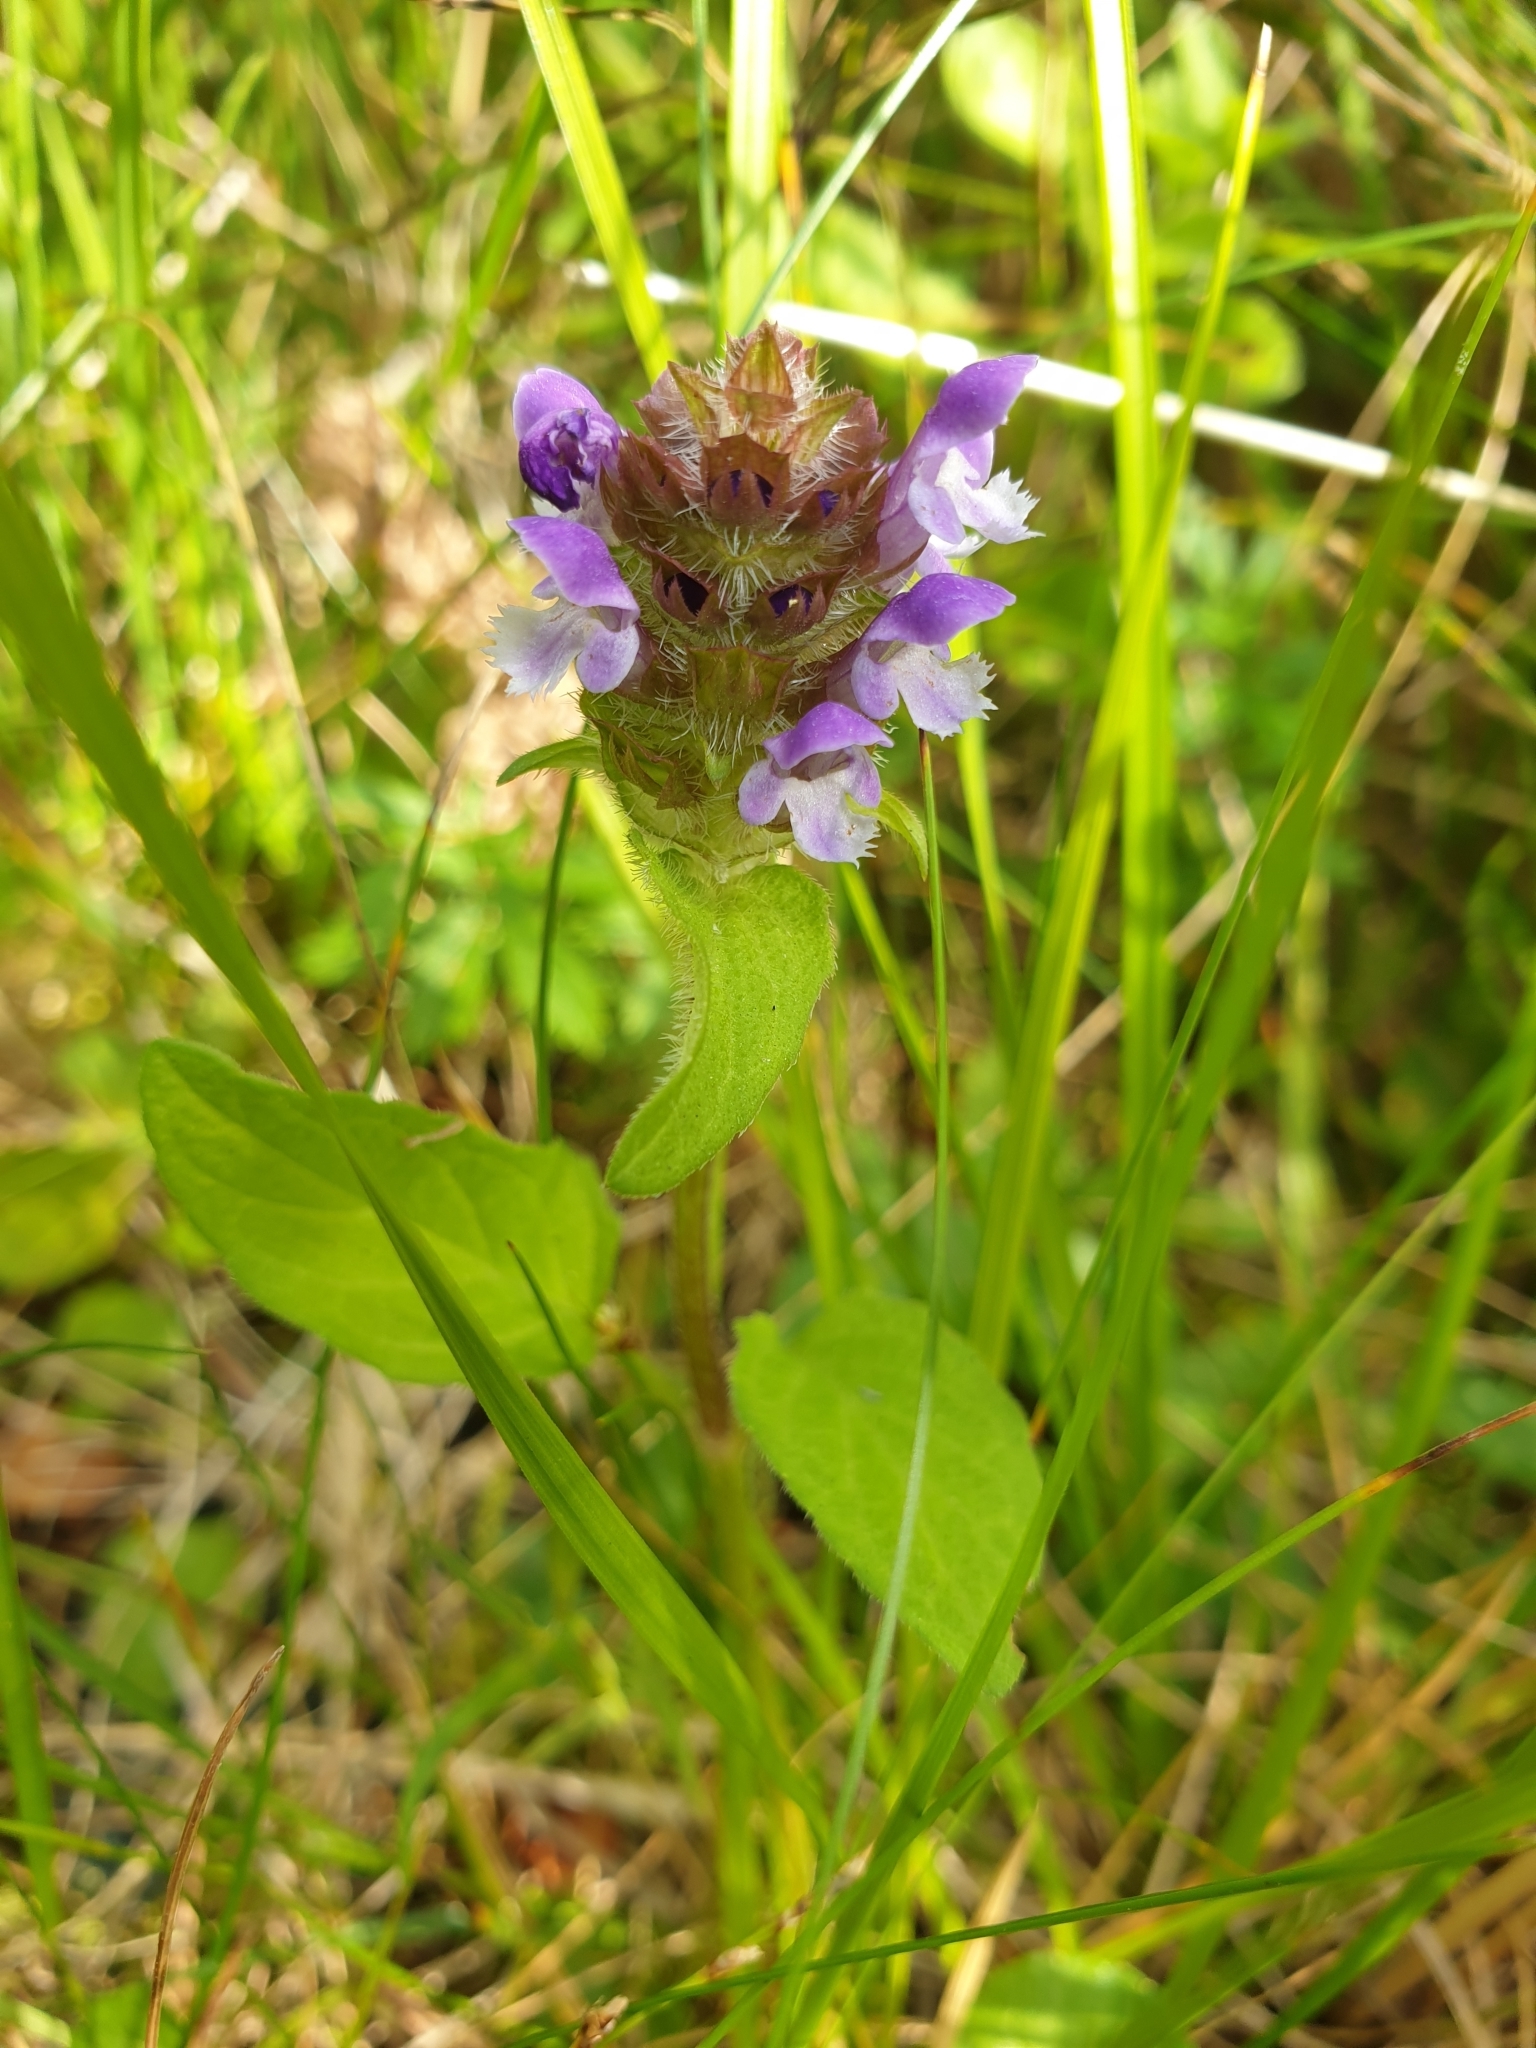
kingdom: Plantae
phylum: Tracheophyta
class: Magnoliopsida
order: Lamiales
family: Lamiaceae
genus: Prunella
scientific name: Prunella vulgaris
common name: Heal-all
